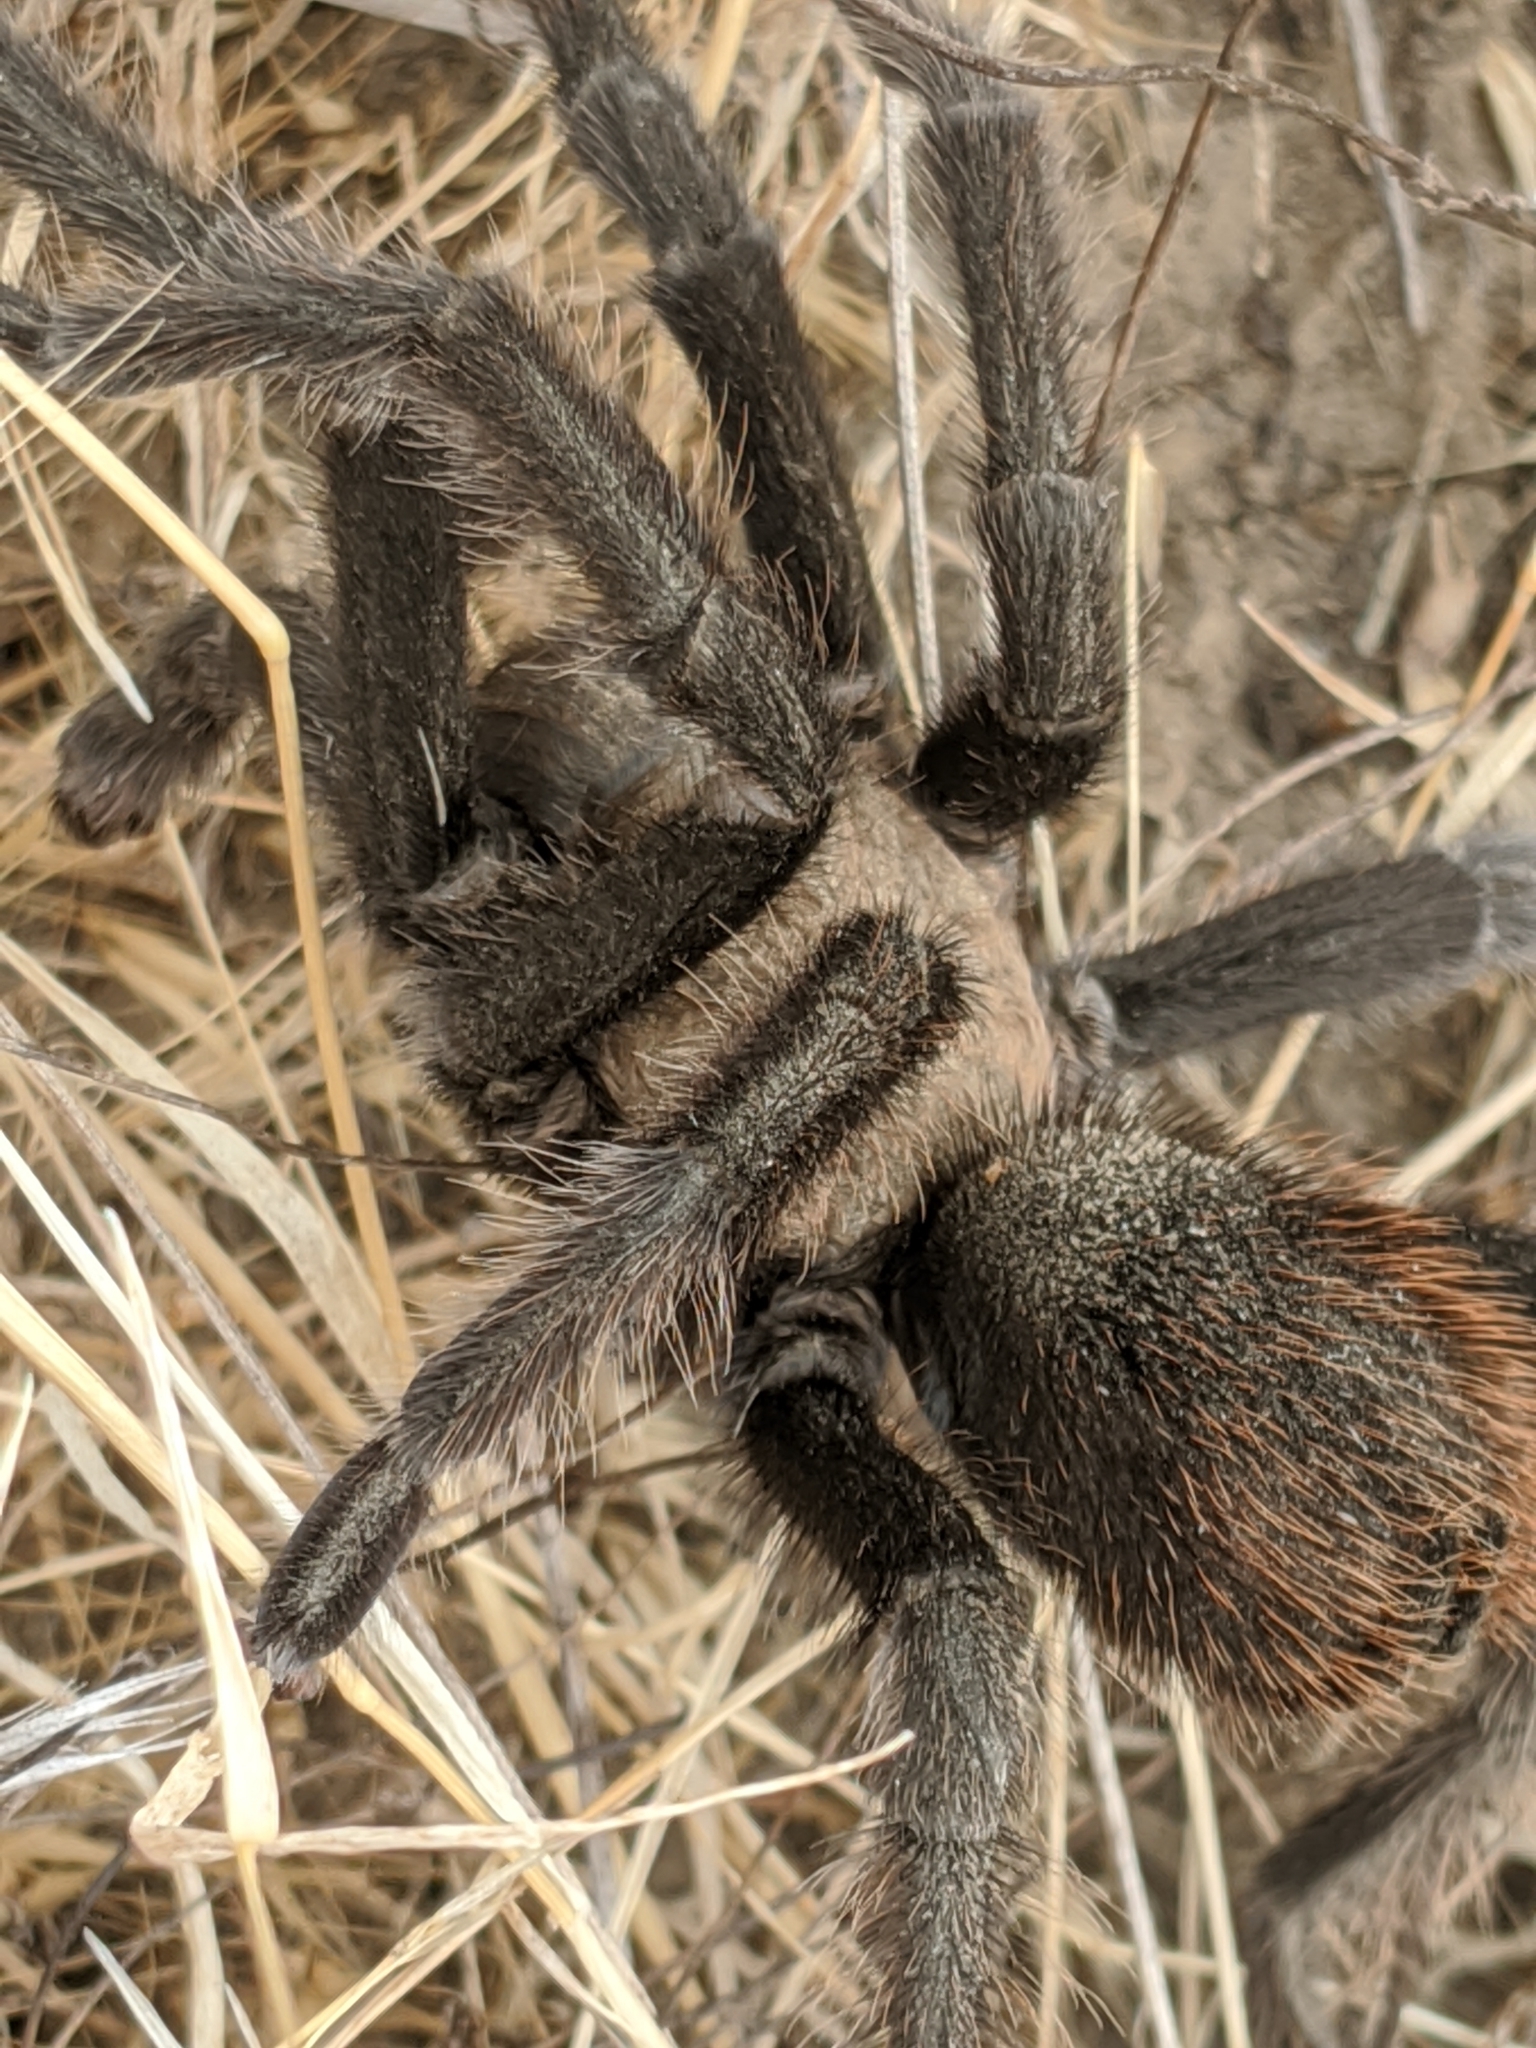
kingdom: Animalia
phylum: Arthropoda
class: Arachnida
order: Araneae
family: Theraphosidae
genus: Aphonopelma
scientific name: Aphonopelma iodius
